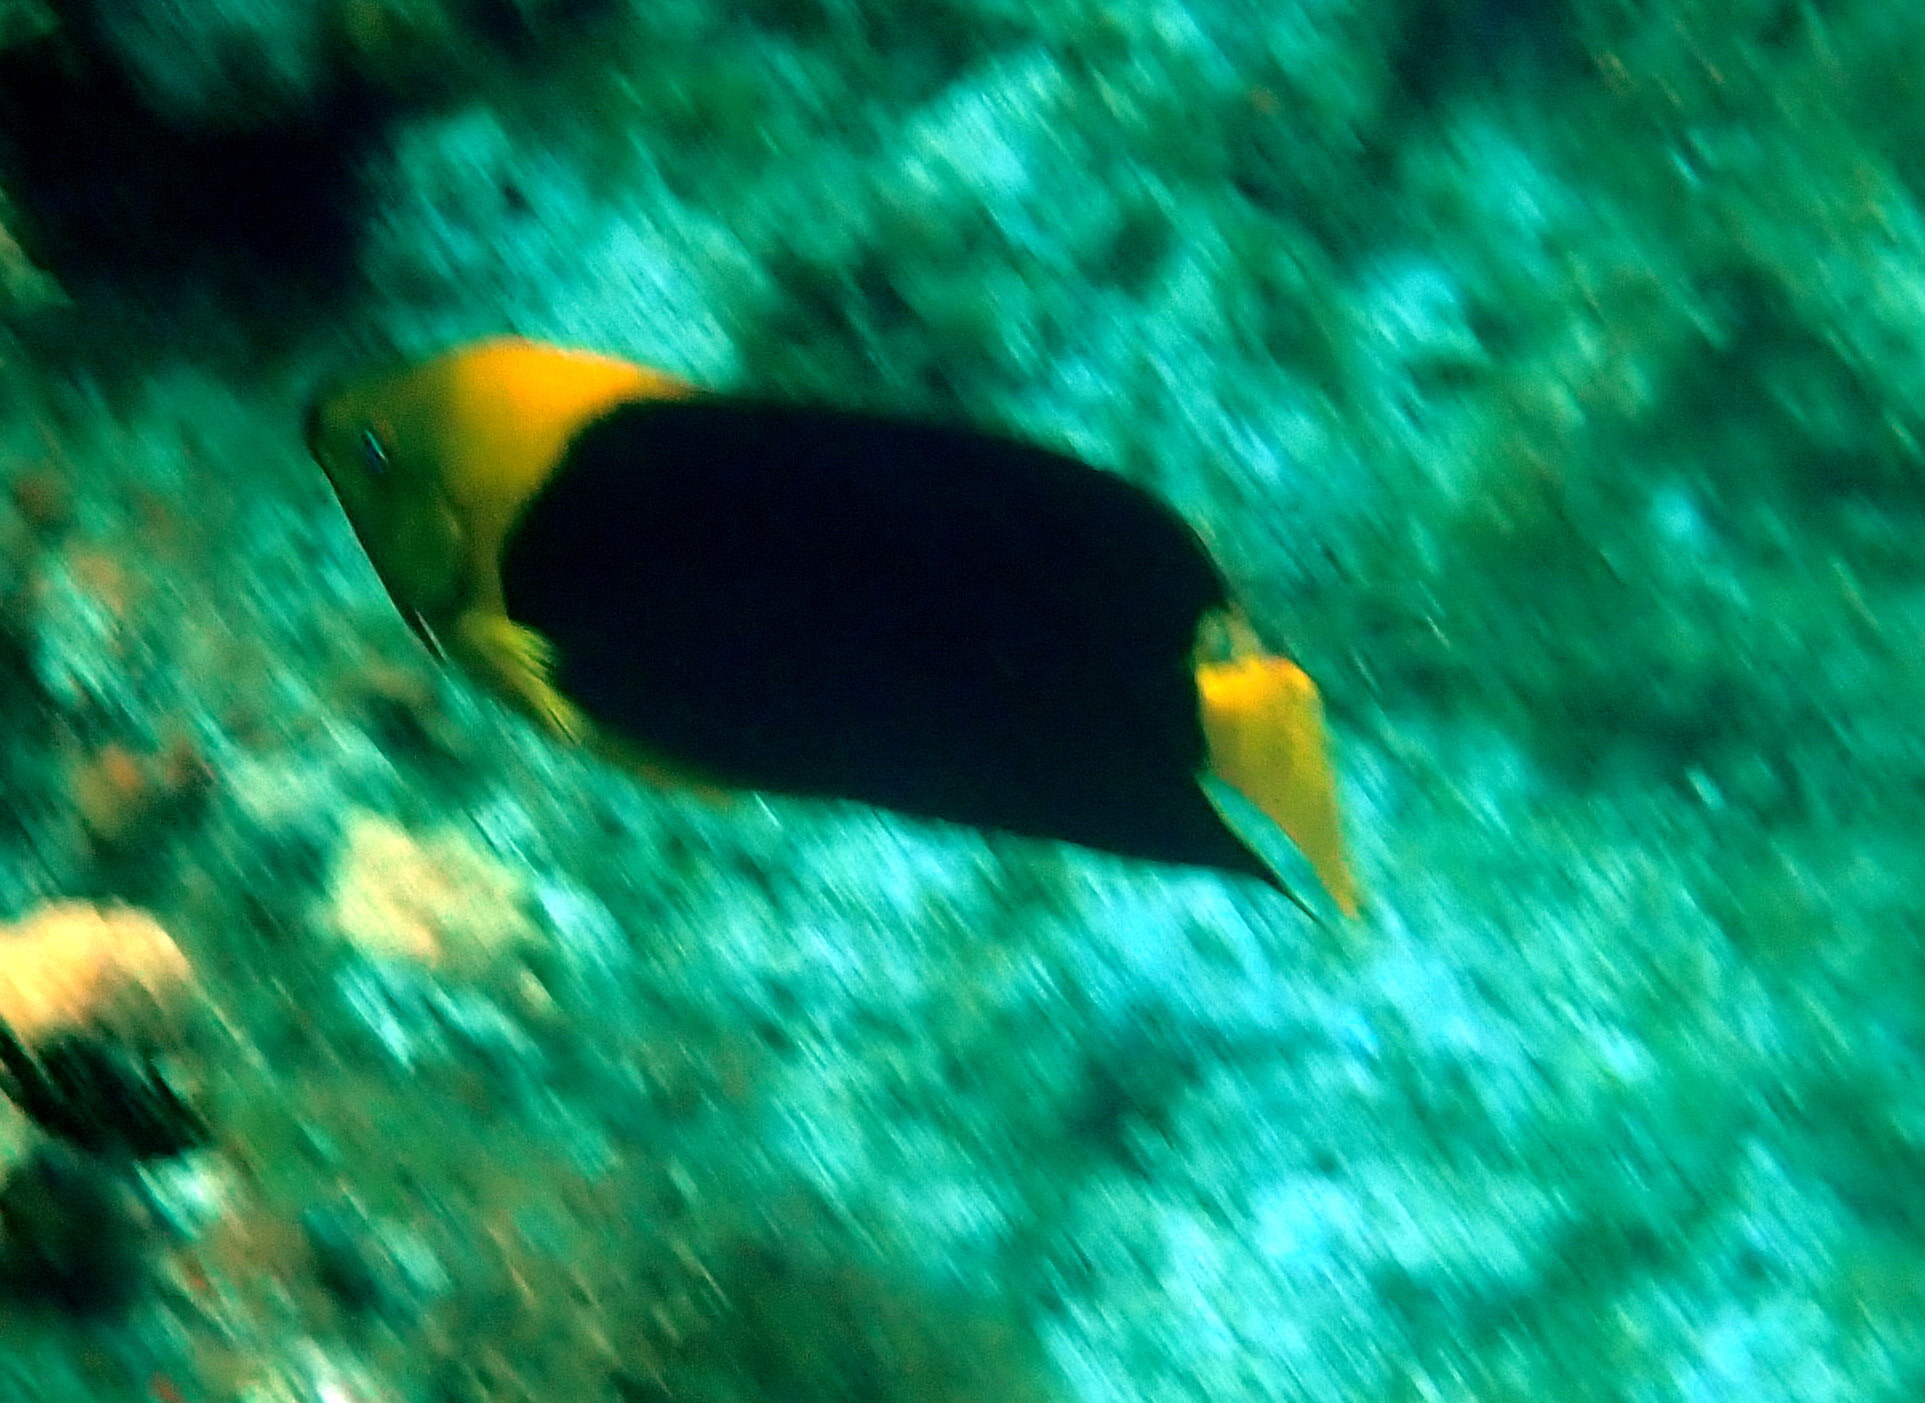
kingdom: Animalia
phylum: Chordata
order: Perciformes
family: Pomacanthidae
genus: Holacanthus
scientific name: Holacanthus tricolor
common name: Rock beauty
